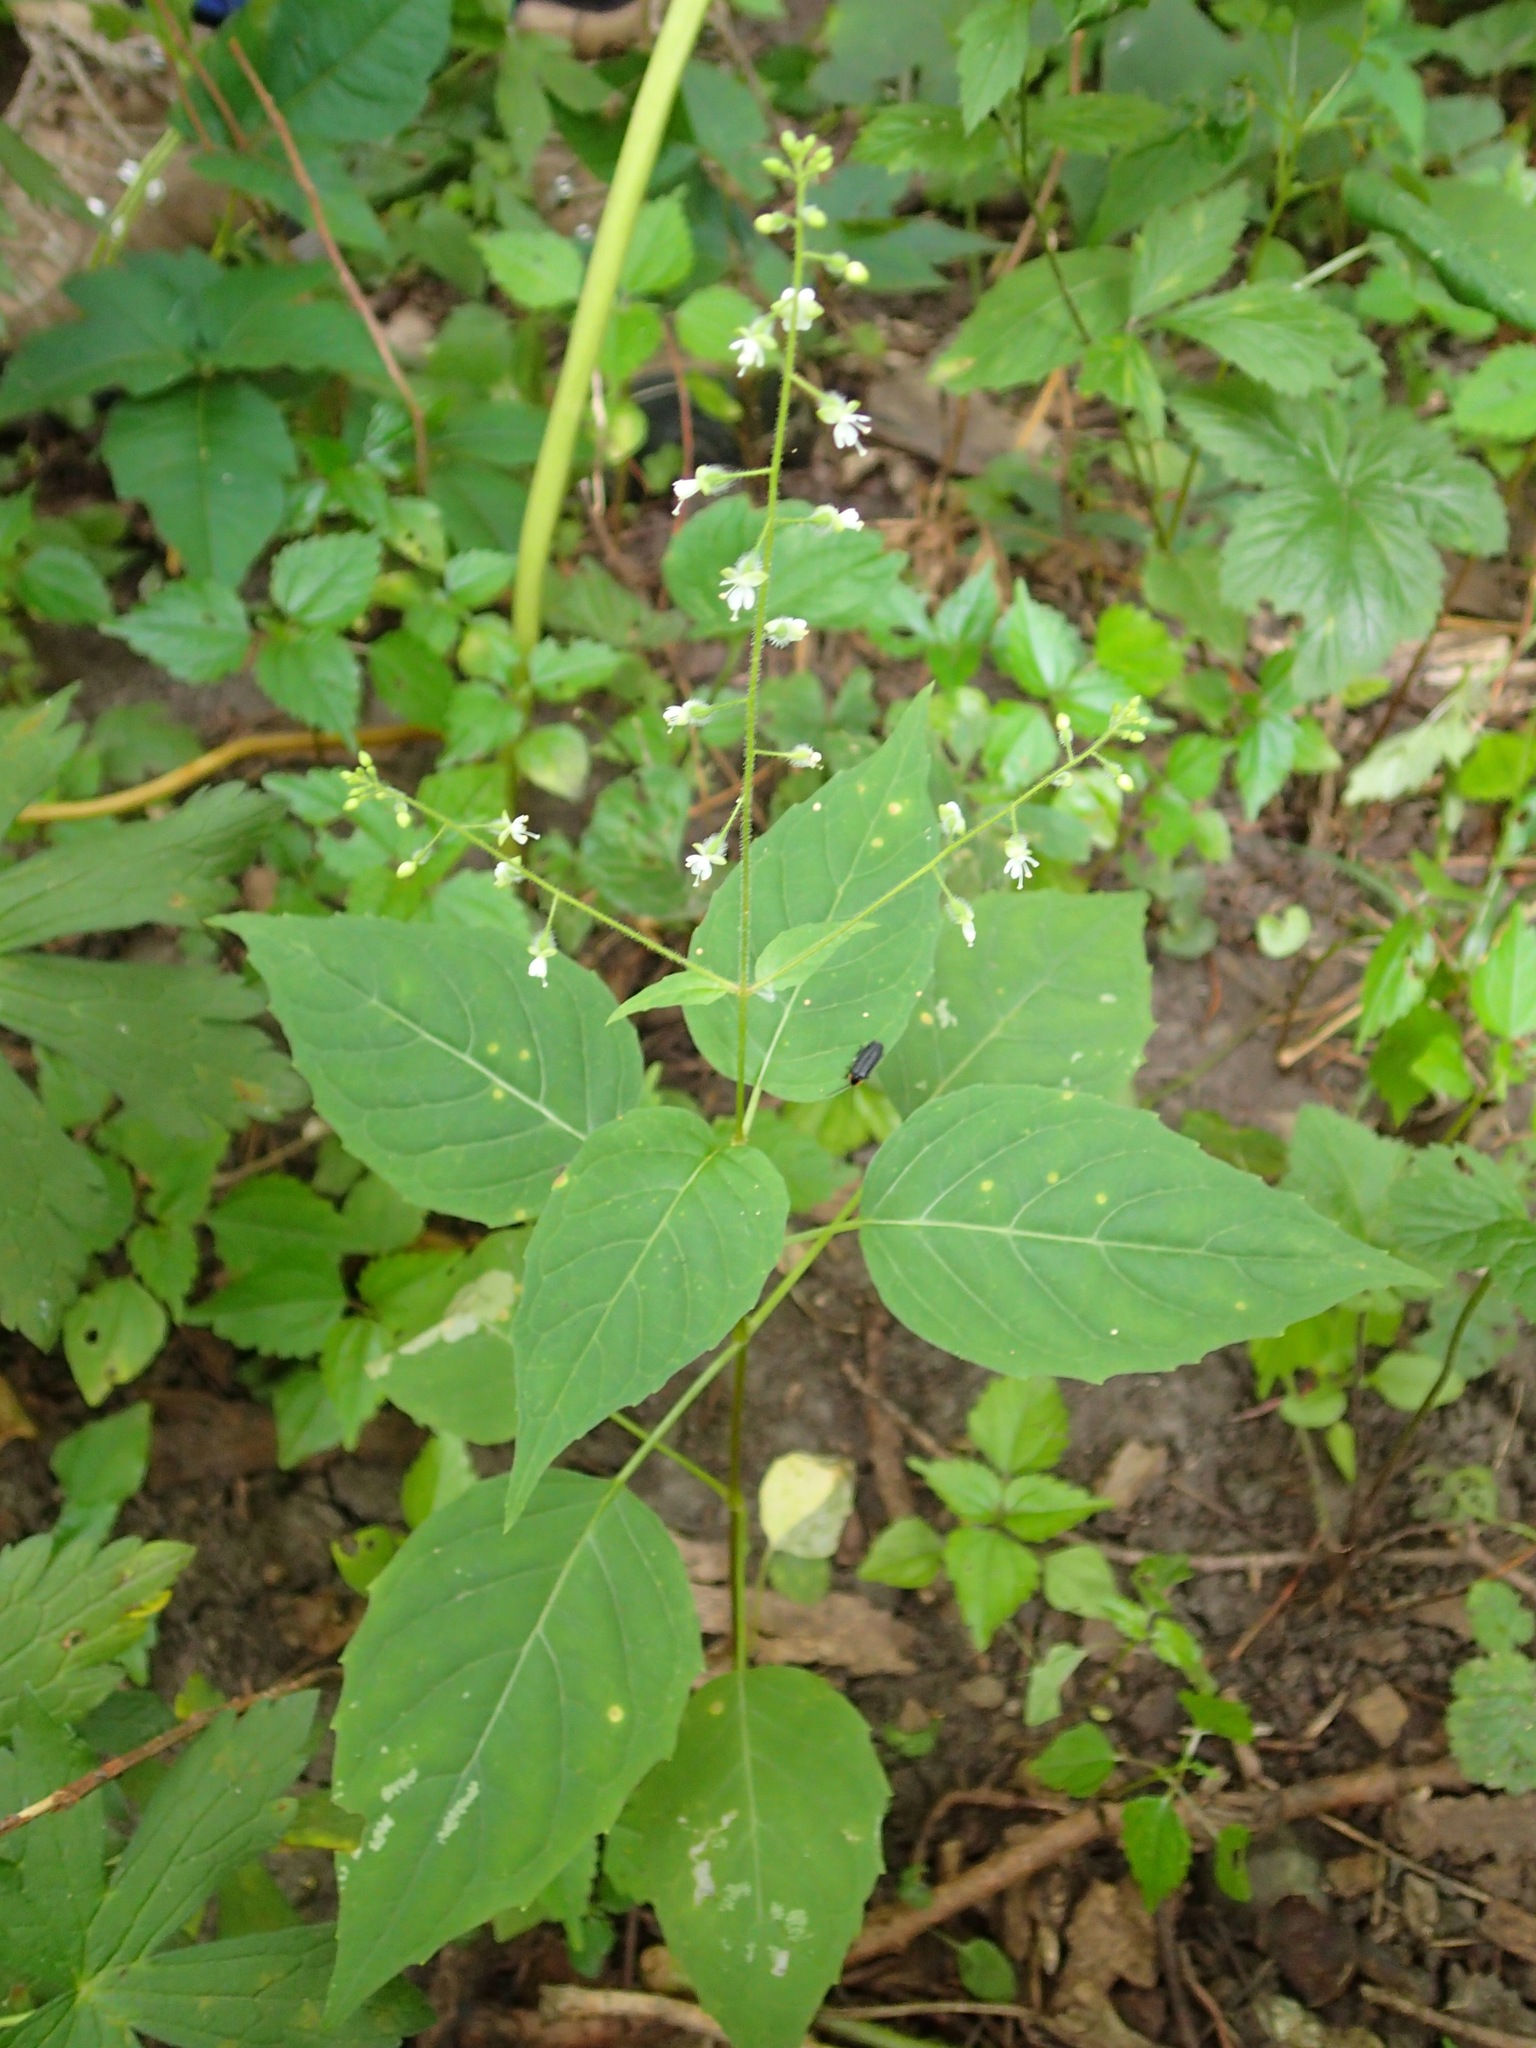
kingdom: Plantae
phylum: Tracheophyta
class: Magnoliopsida
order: Myrtales
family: Onagraceae
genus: Circaea
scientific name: Circaea canadensis
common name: Broad-leaved enchanter's nightshade
